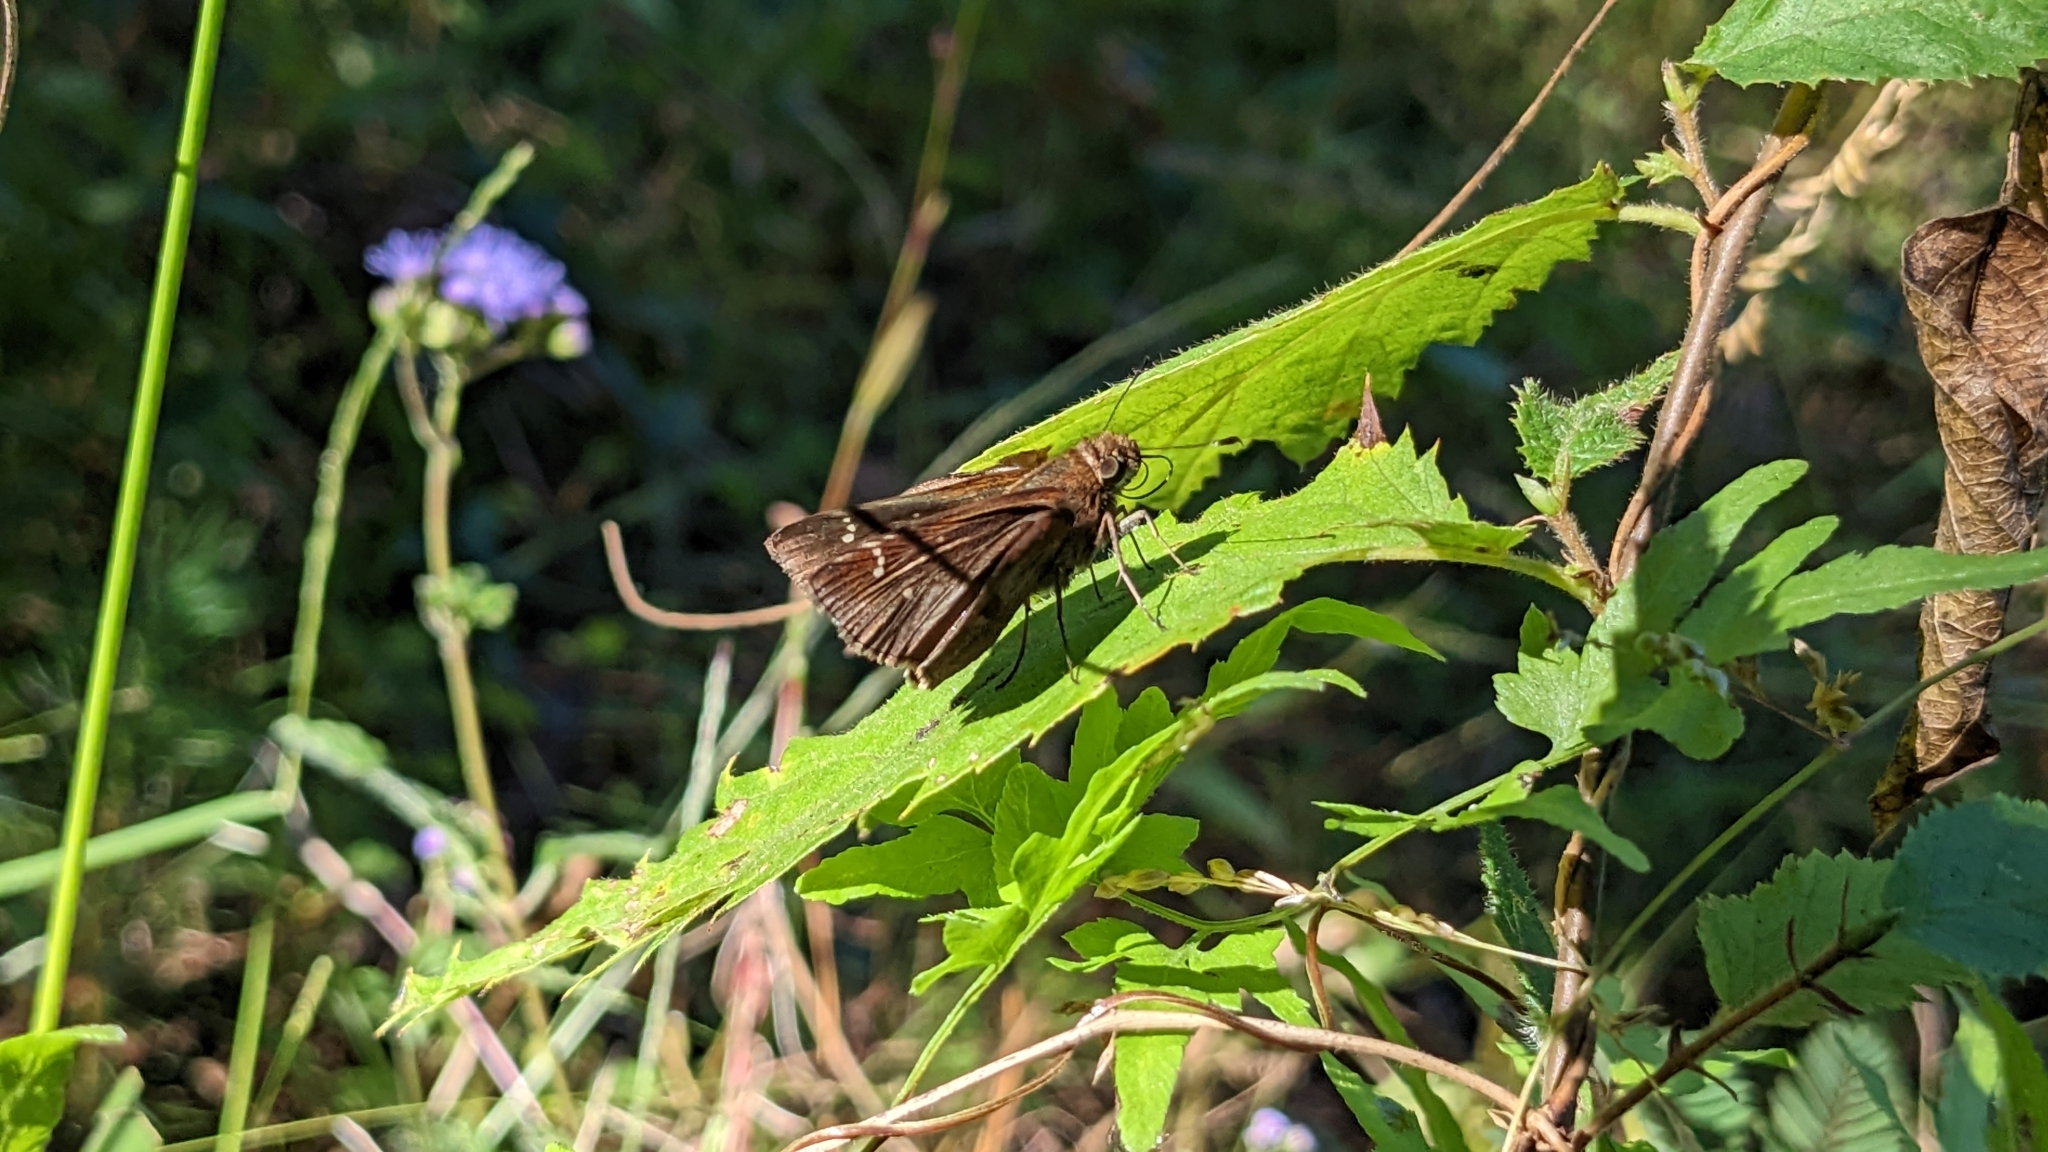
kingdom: Animalia
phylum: Arthropoda
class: Insecta
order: Lepidoptera
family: Hesperiidae
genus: Lerema
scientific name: Lerema accius
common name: Clouded skipper
